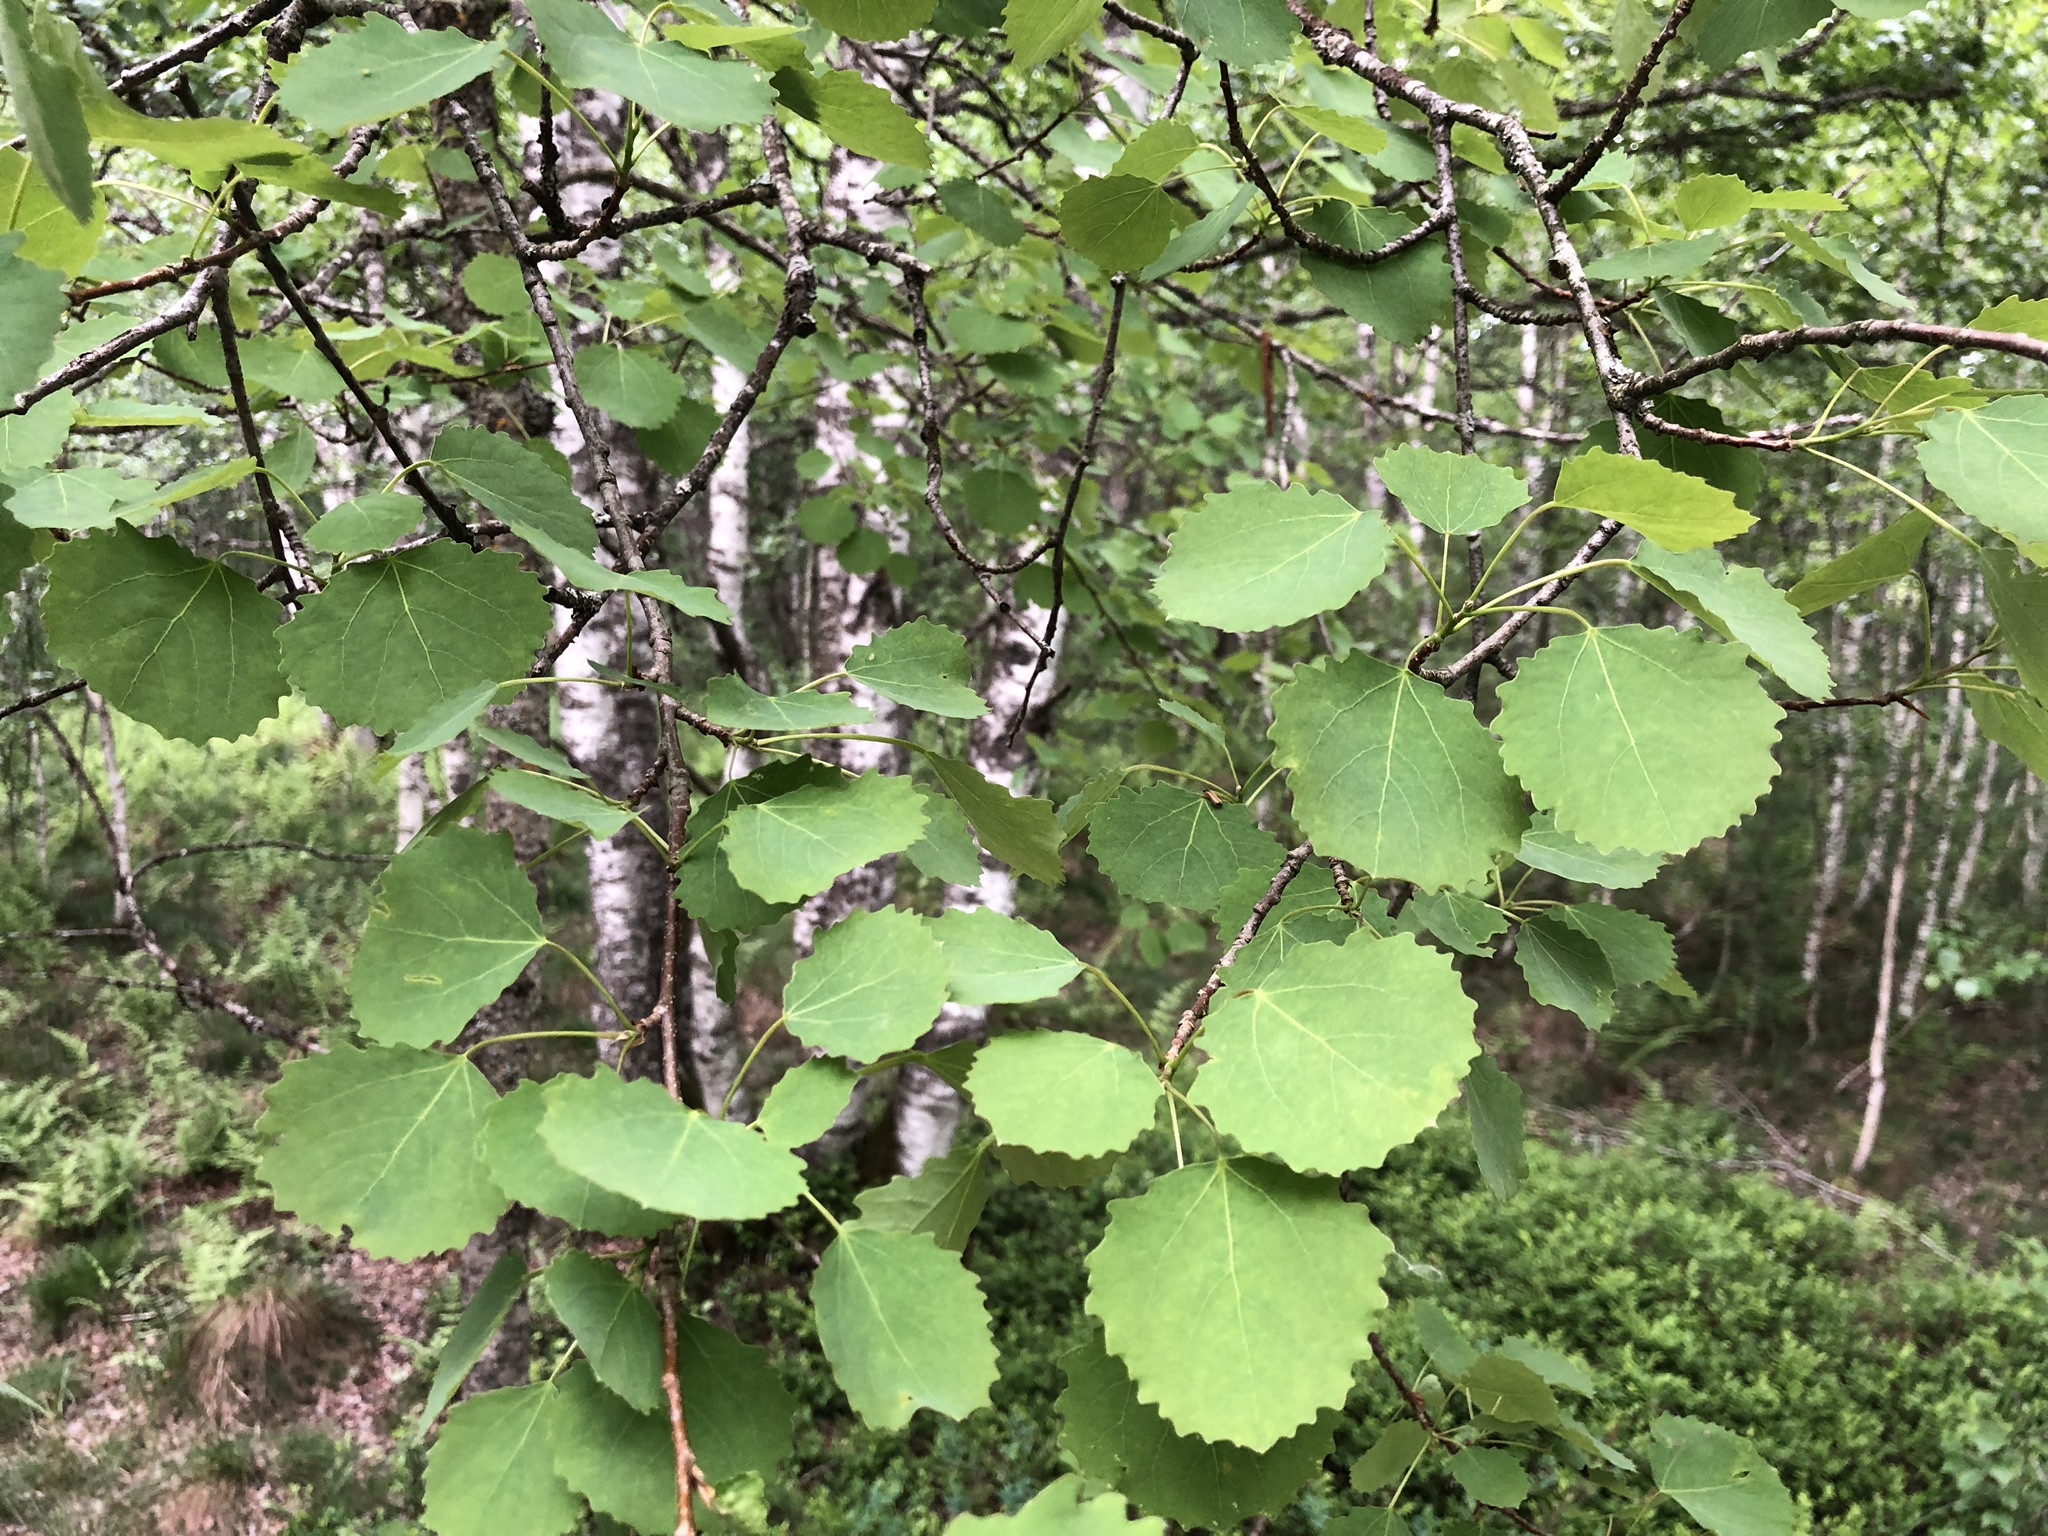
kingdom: Plantae
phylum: Tracheophyta
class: Magnoliopsida
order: Malpighiales
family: Salicaceae
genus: Populus
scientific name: Populus tremula
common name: European aspen
